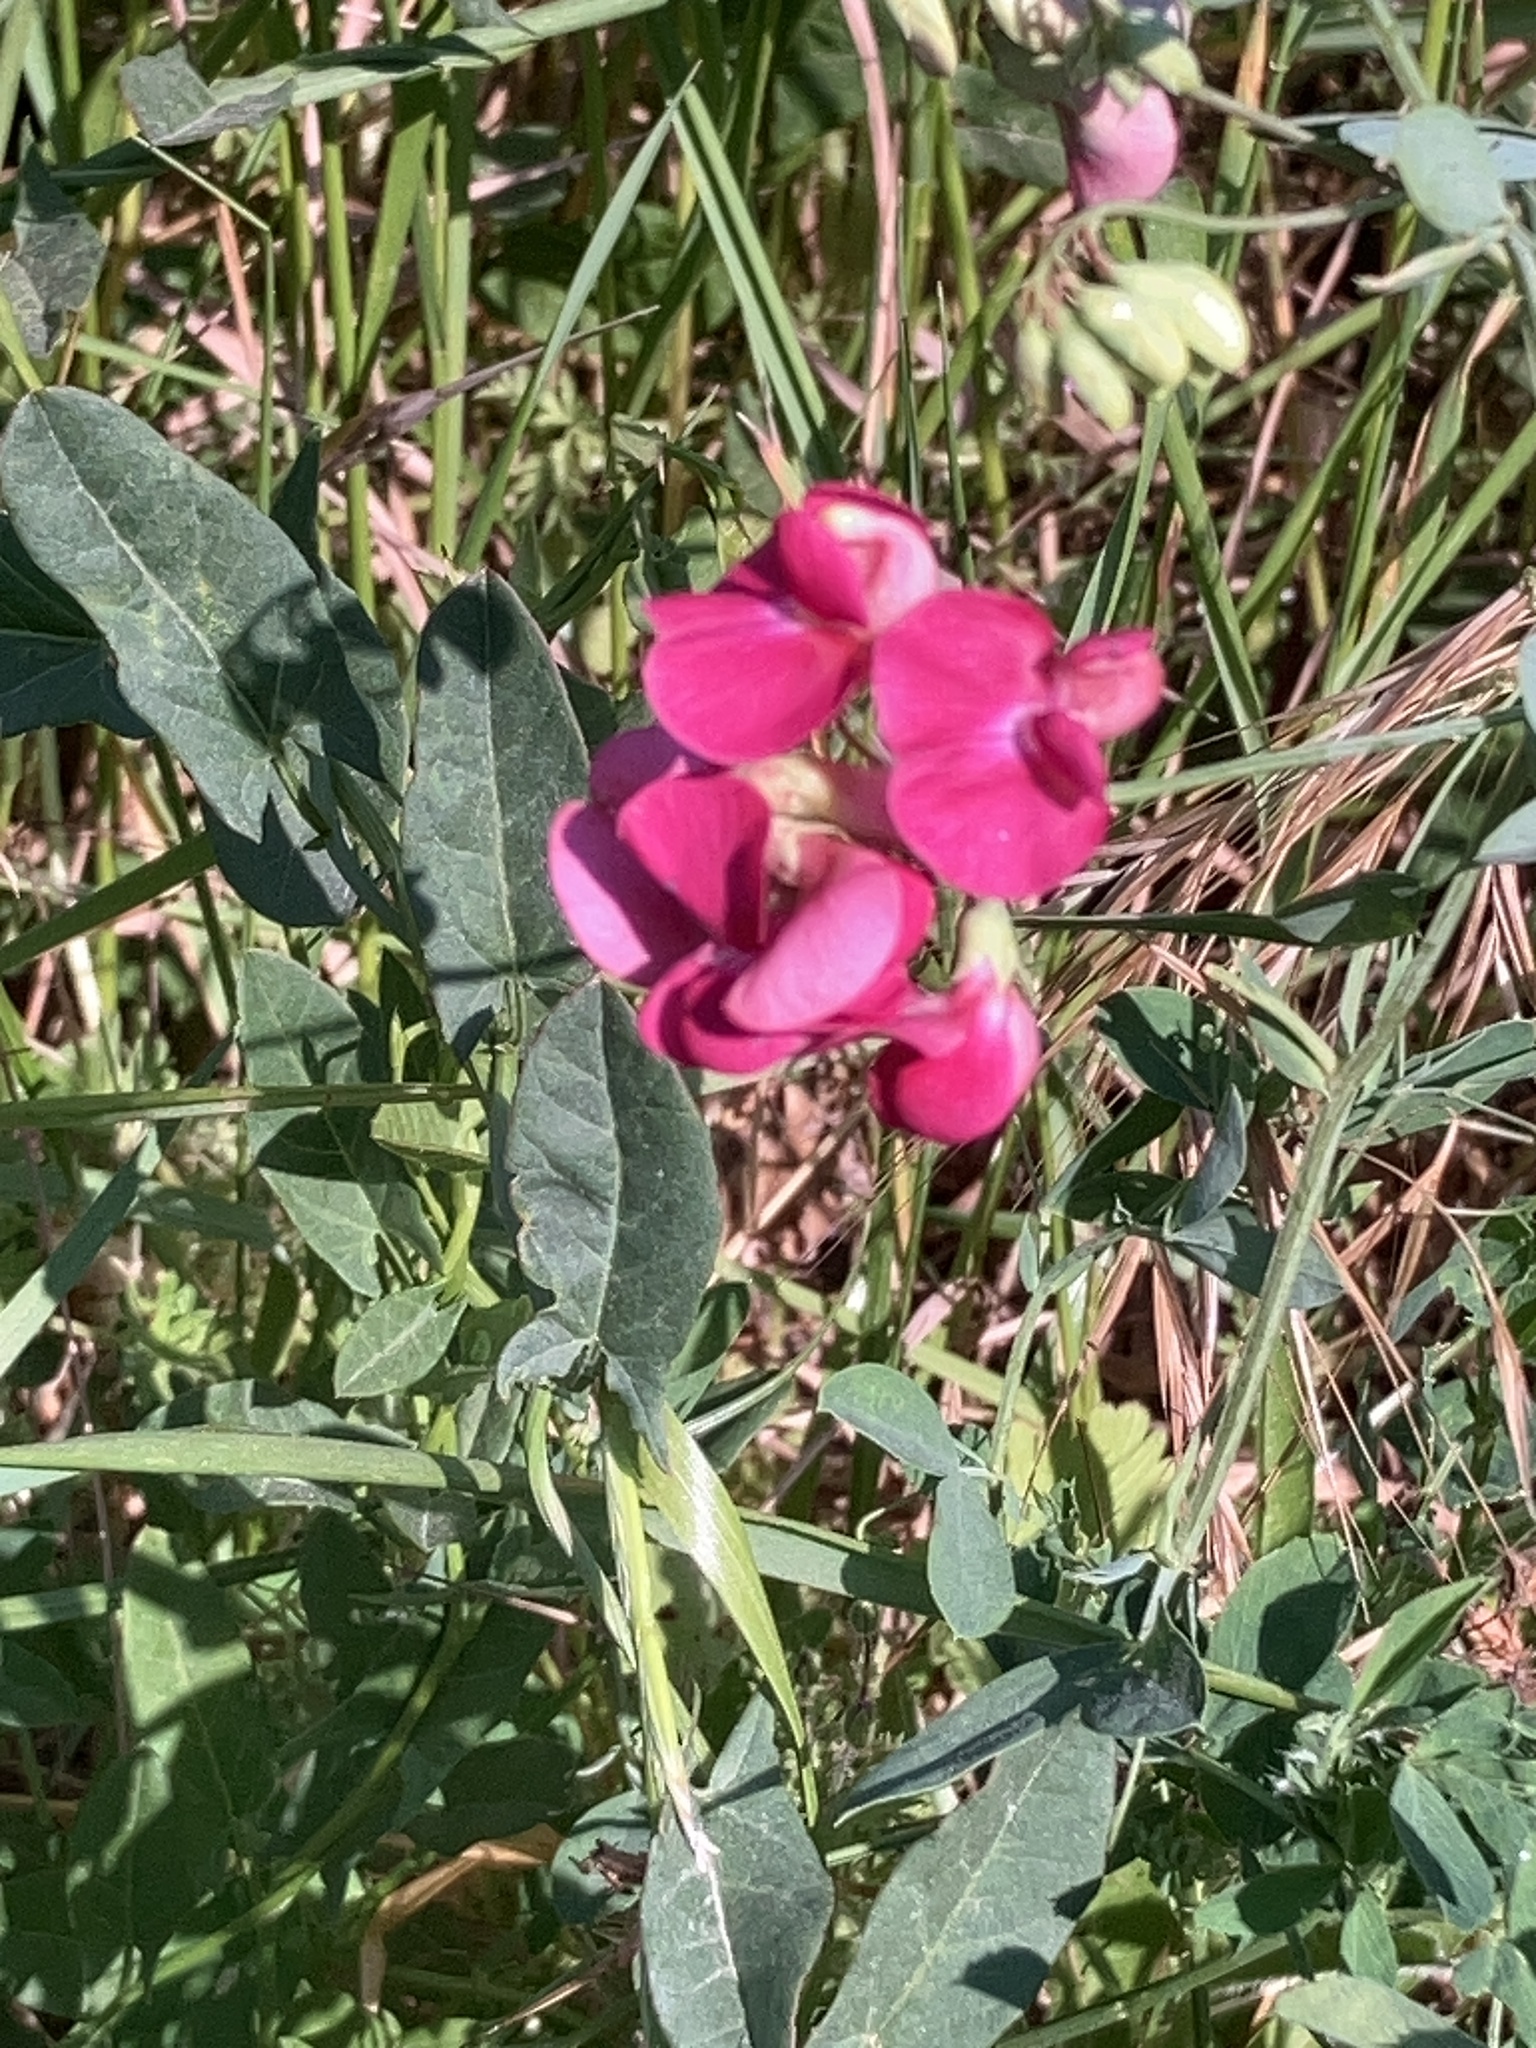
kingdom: Plantae
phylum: Tracheophyta
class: Magnoliopsida
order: Fabales
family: Fabaceae
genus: Lathyrus
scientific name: Lathyrus tuberosus
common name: Tuberous pea
